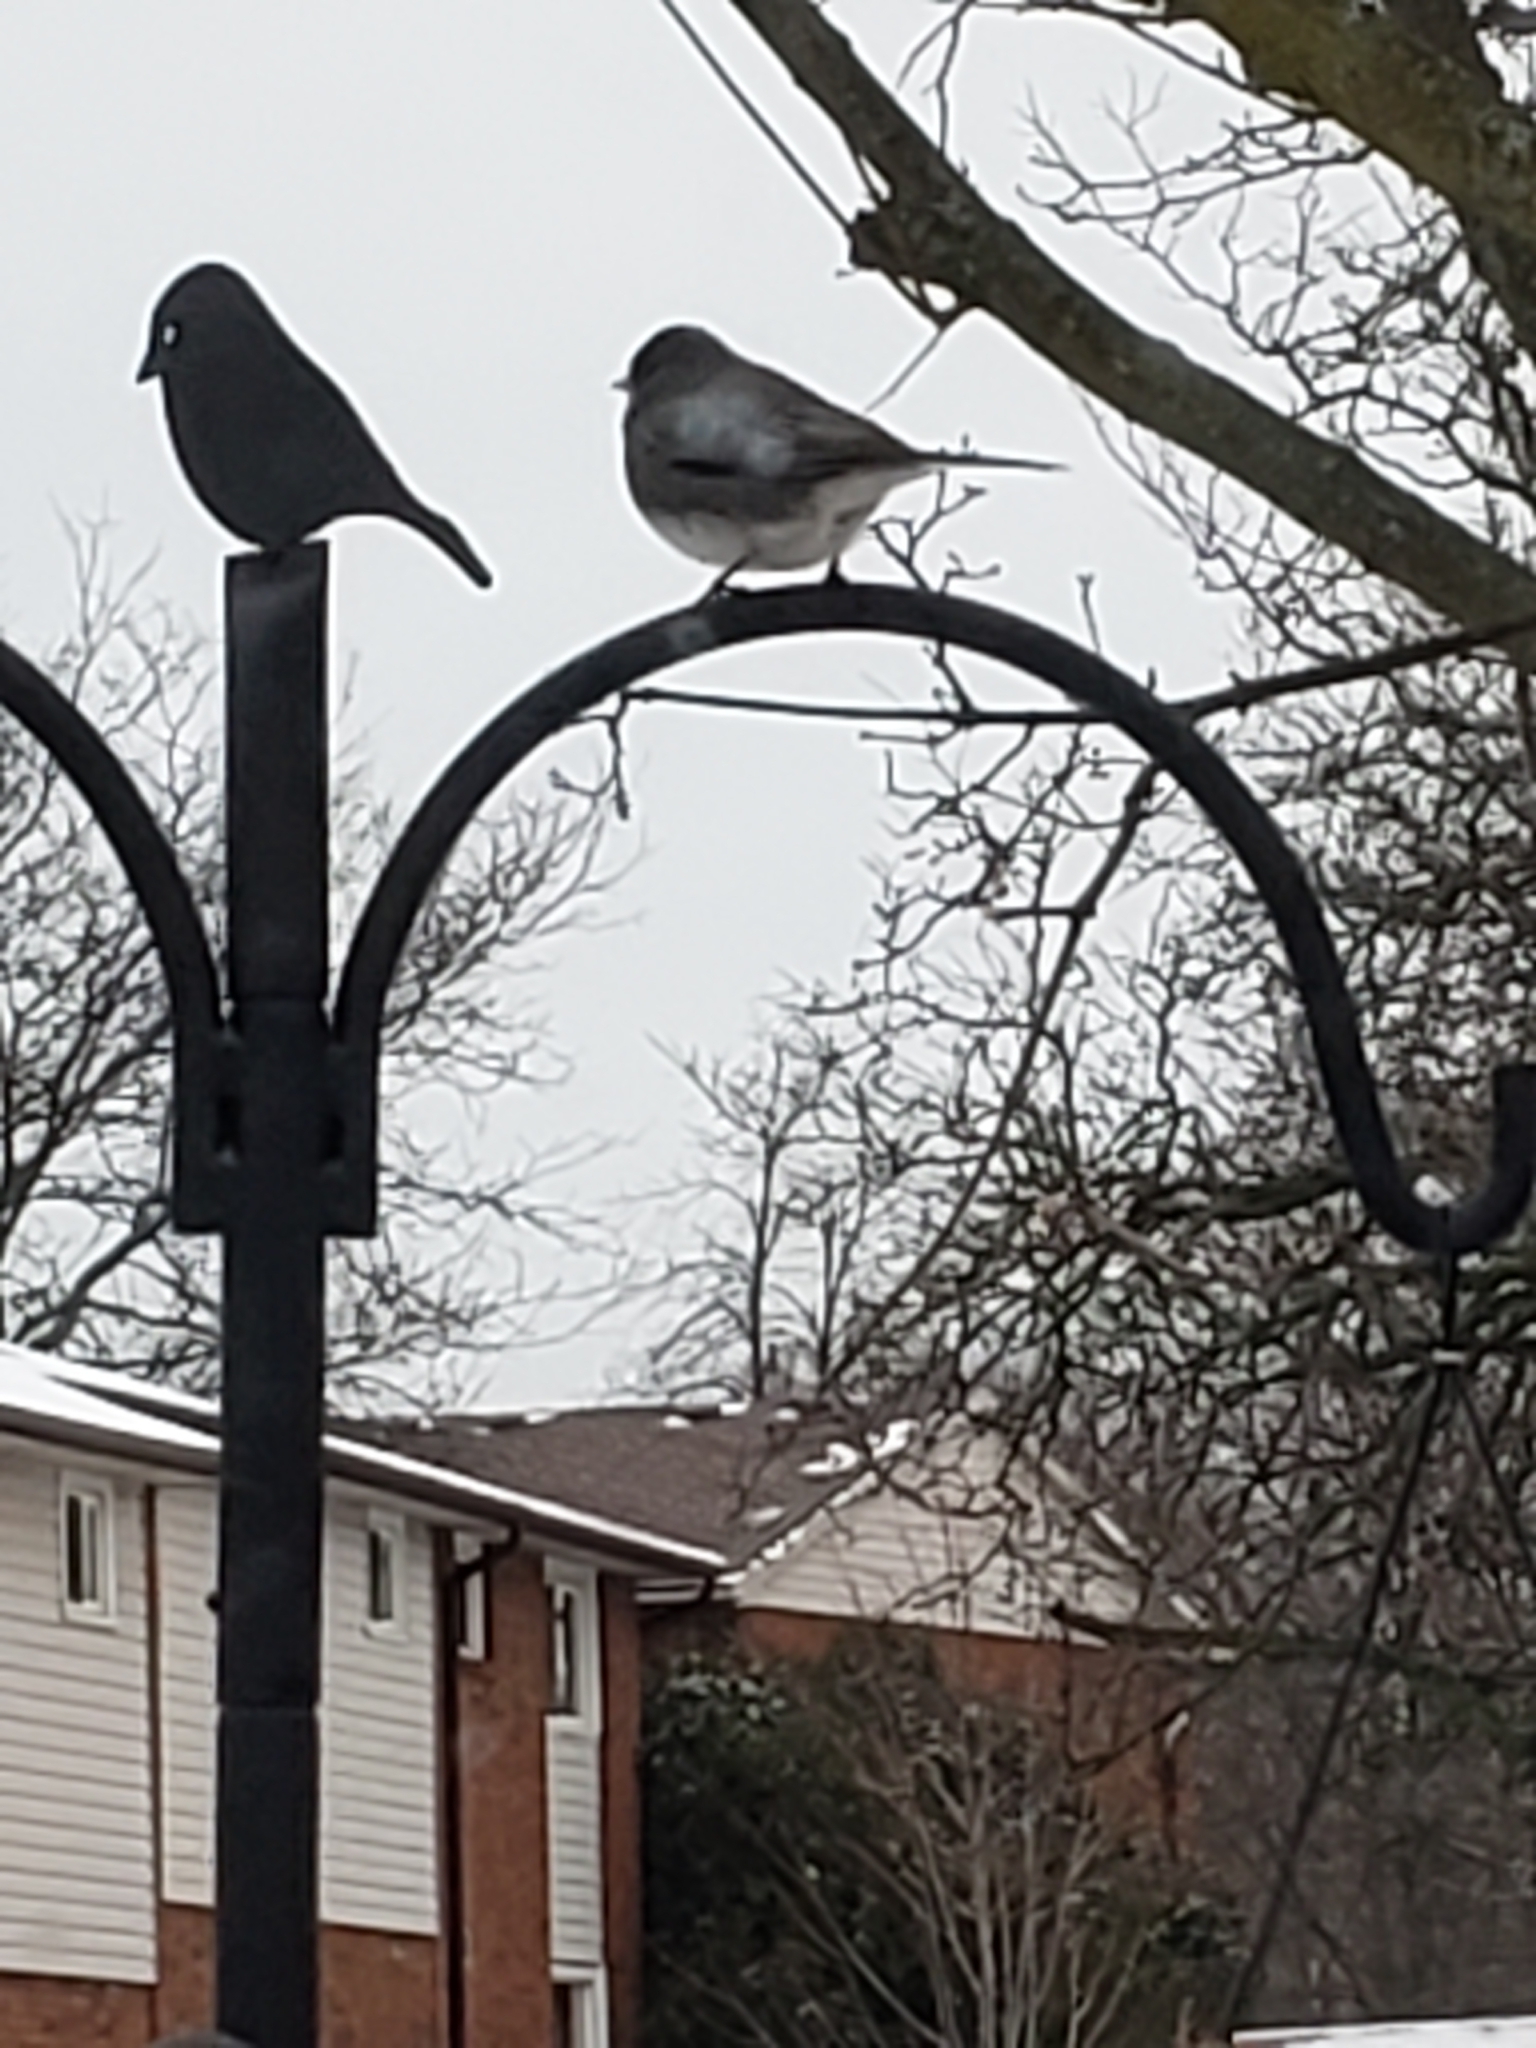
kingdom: Animalia
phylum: Chordata
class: Aves
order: Passeriformes
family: Passerellidae
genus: Junco
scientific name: Junco hyemalis
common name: Dark-eyed junco
